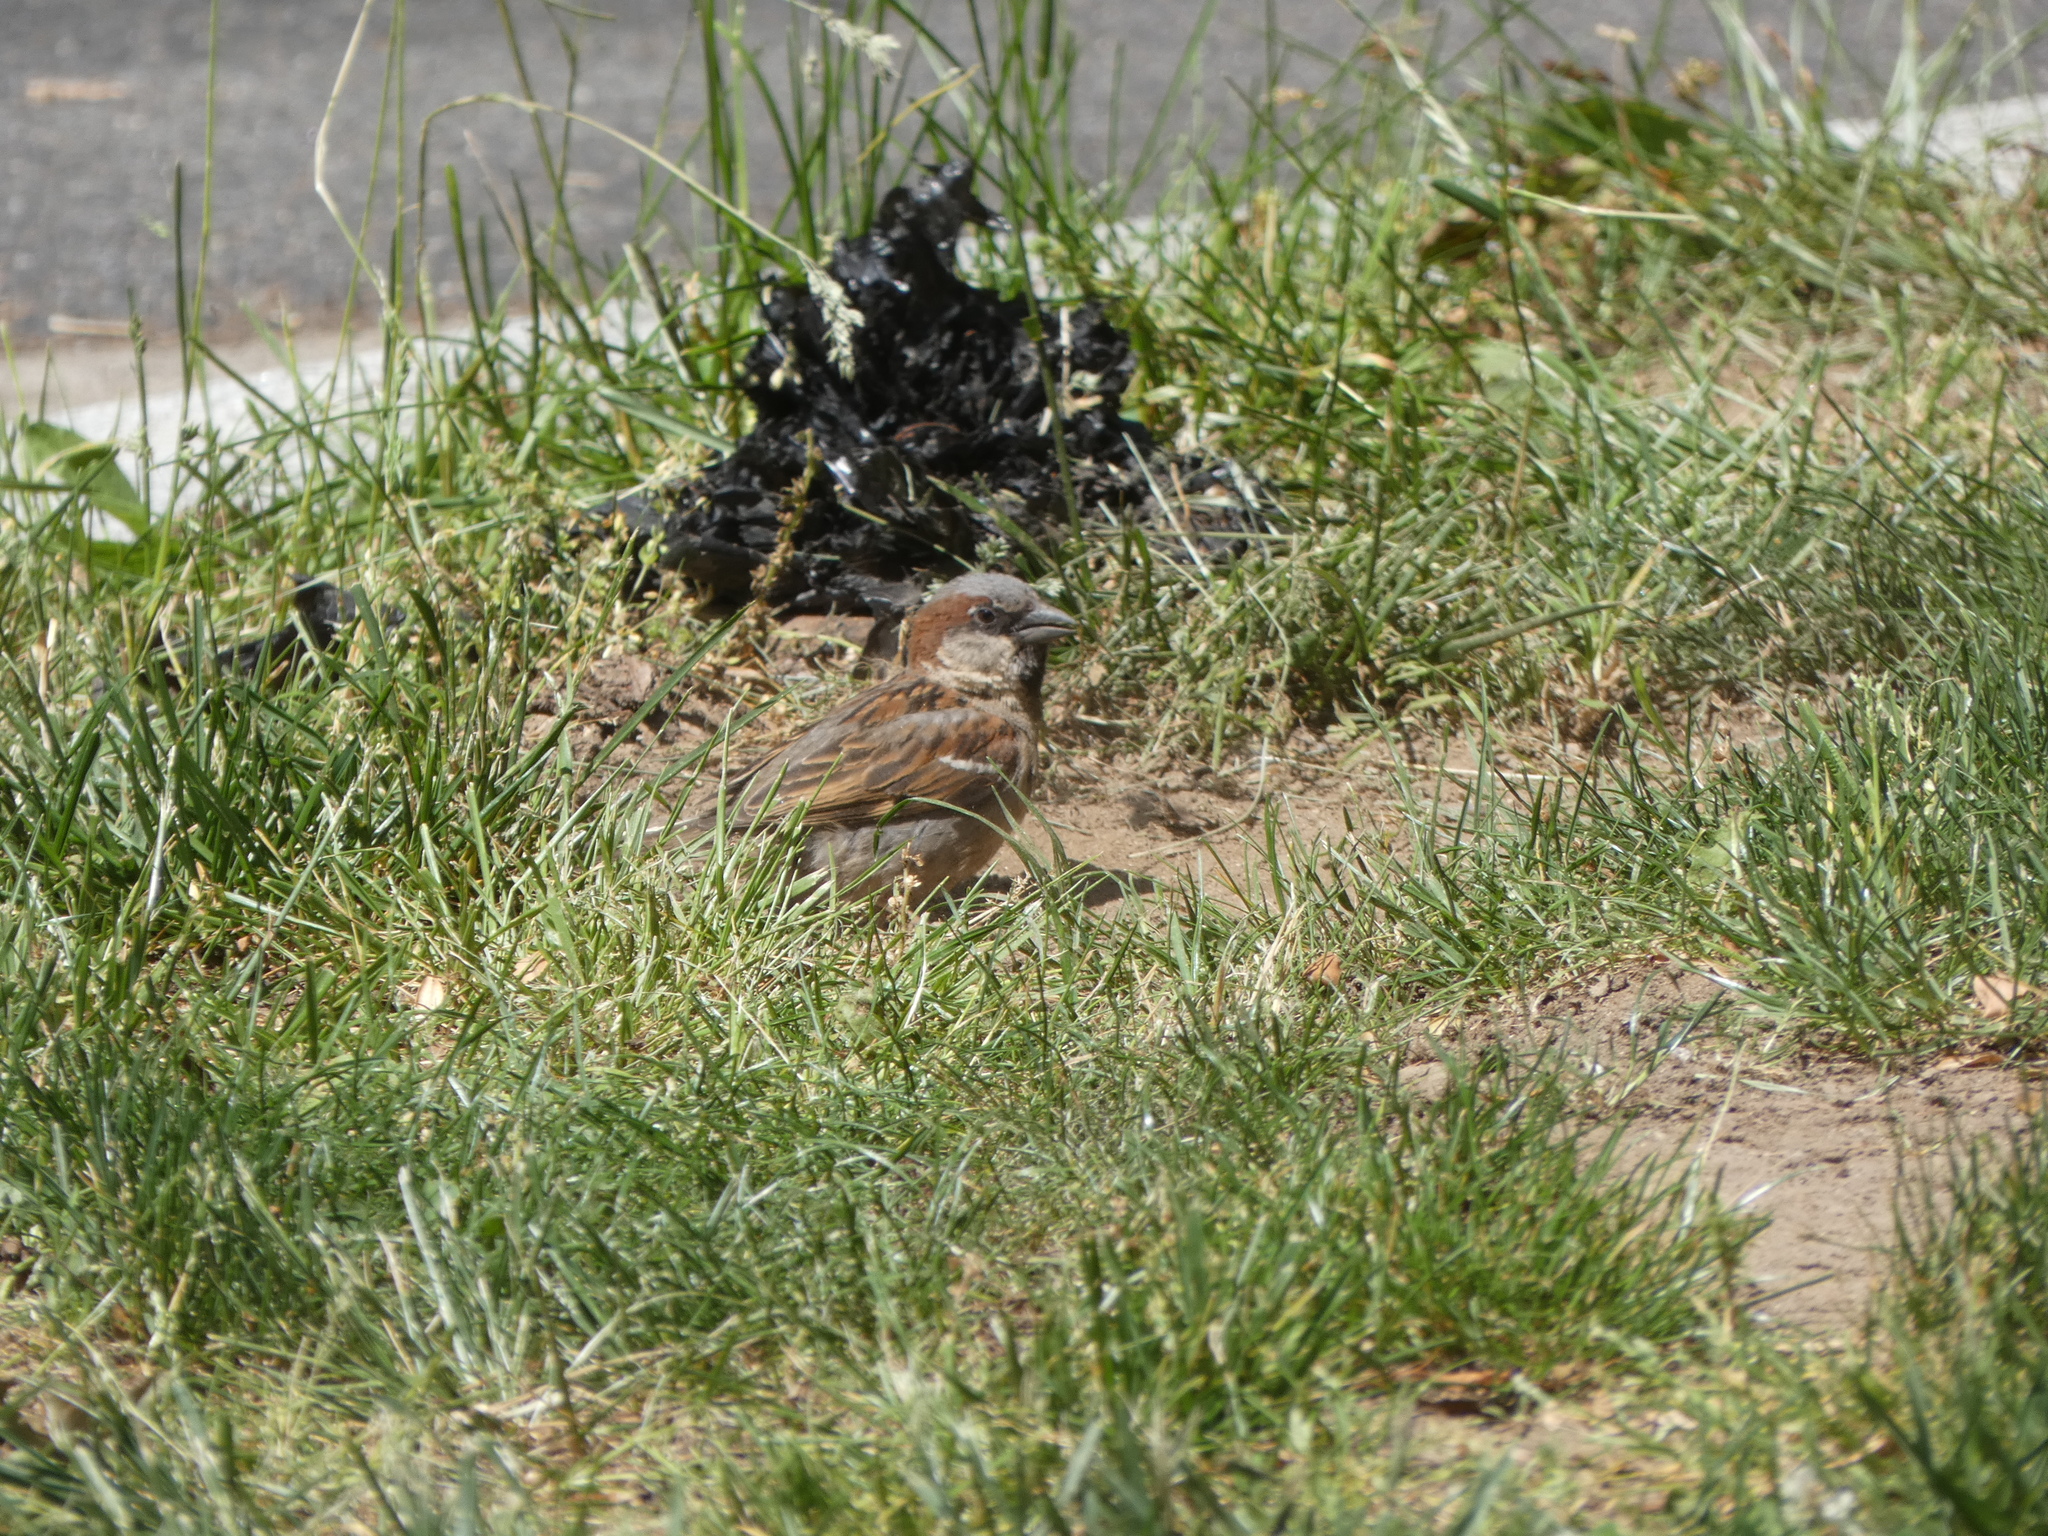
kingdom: Animalia
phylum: Chordata
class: Aves
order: Passeriformes
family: Passeridae
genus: Passer
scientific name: Passer domesticus
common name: House sparrow
